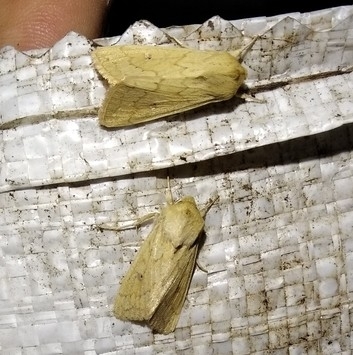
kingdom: Animalia
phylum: Arthropoda
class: Insecta
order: Lepidoptera
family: Noctuidae
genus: Mythimna
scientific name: Mythimna vitellina
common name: Delicate
